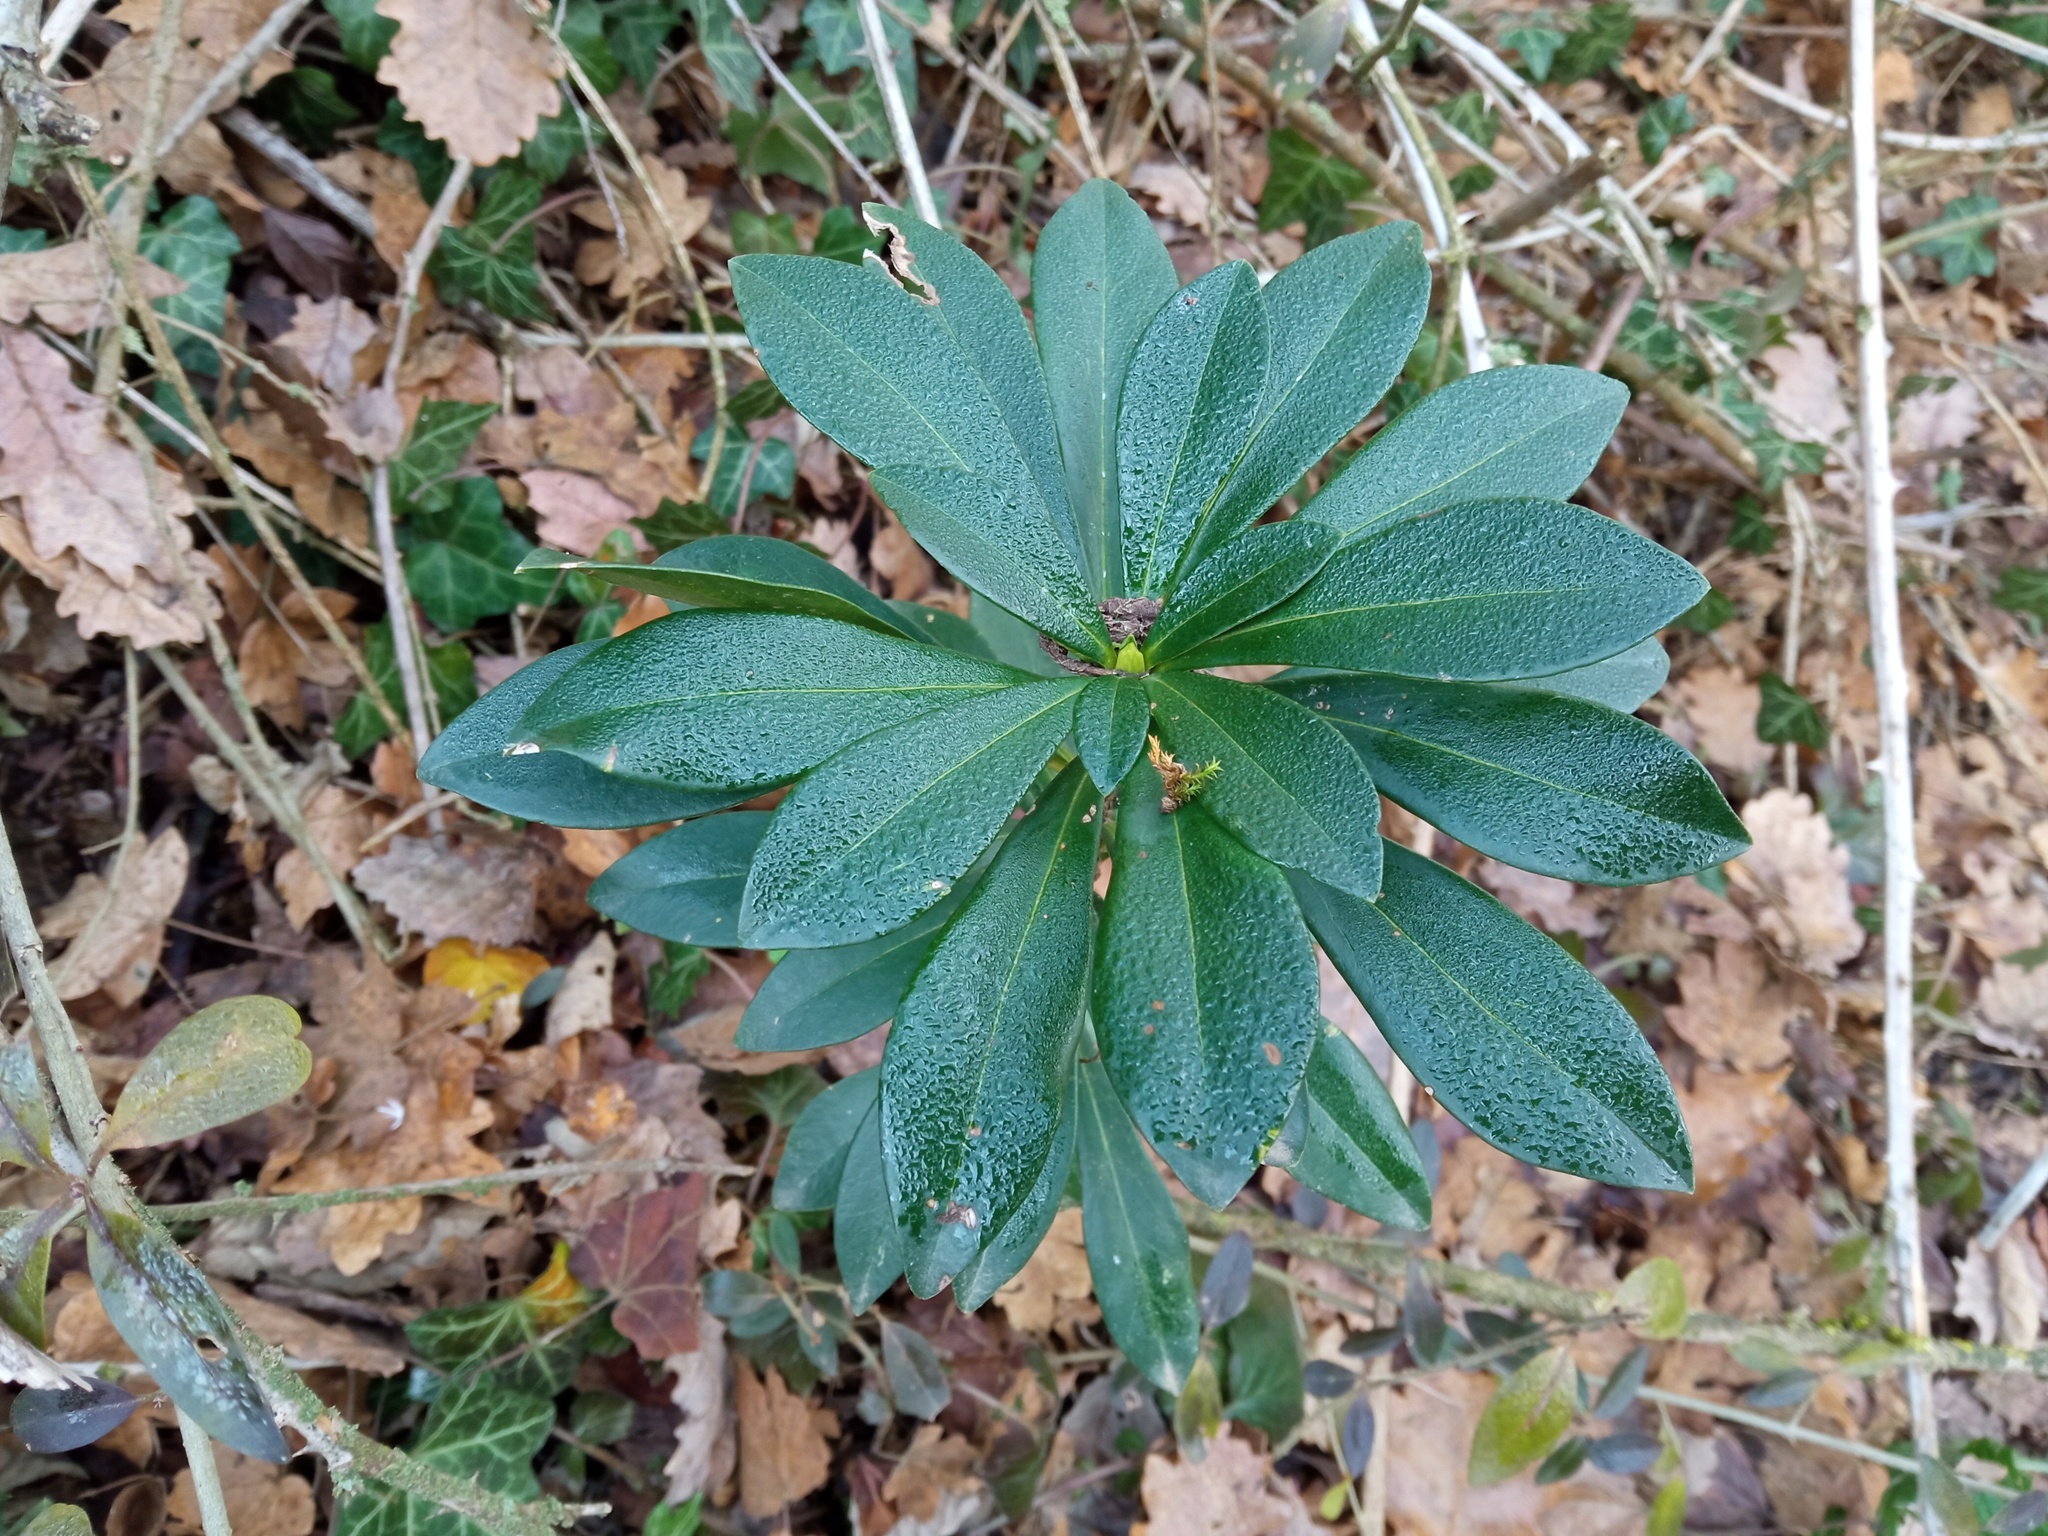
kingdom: Plantae
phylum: Tracheophyta
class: Magnoliopsida
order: Malvales
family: Thymelaeaceae
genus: Daphne
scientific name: Daphne laureola
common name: Spurge-laurel
